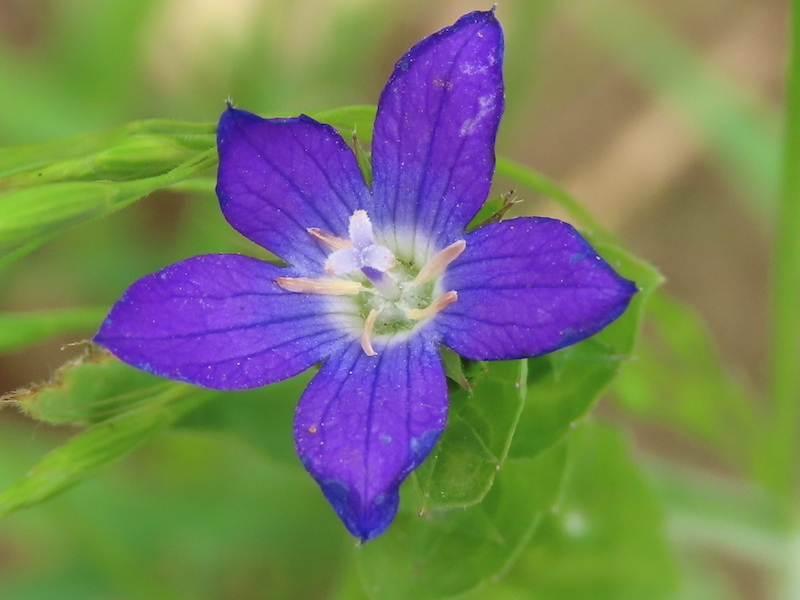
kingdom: Plantae
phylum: Tracheophyta
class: Magnoliopsida
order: Asterales
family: Campanulaceae
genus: Triodanis
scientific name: Triodanis perfoliata
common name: Clasping venus' looking-glass
